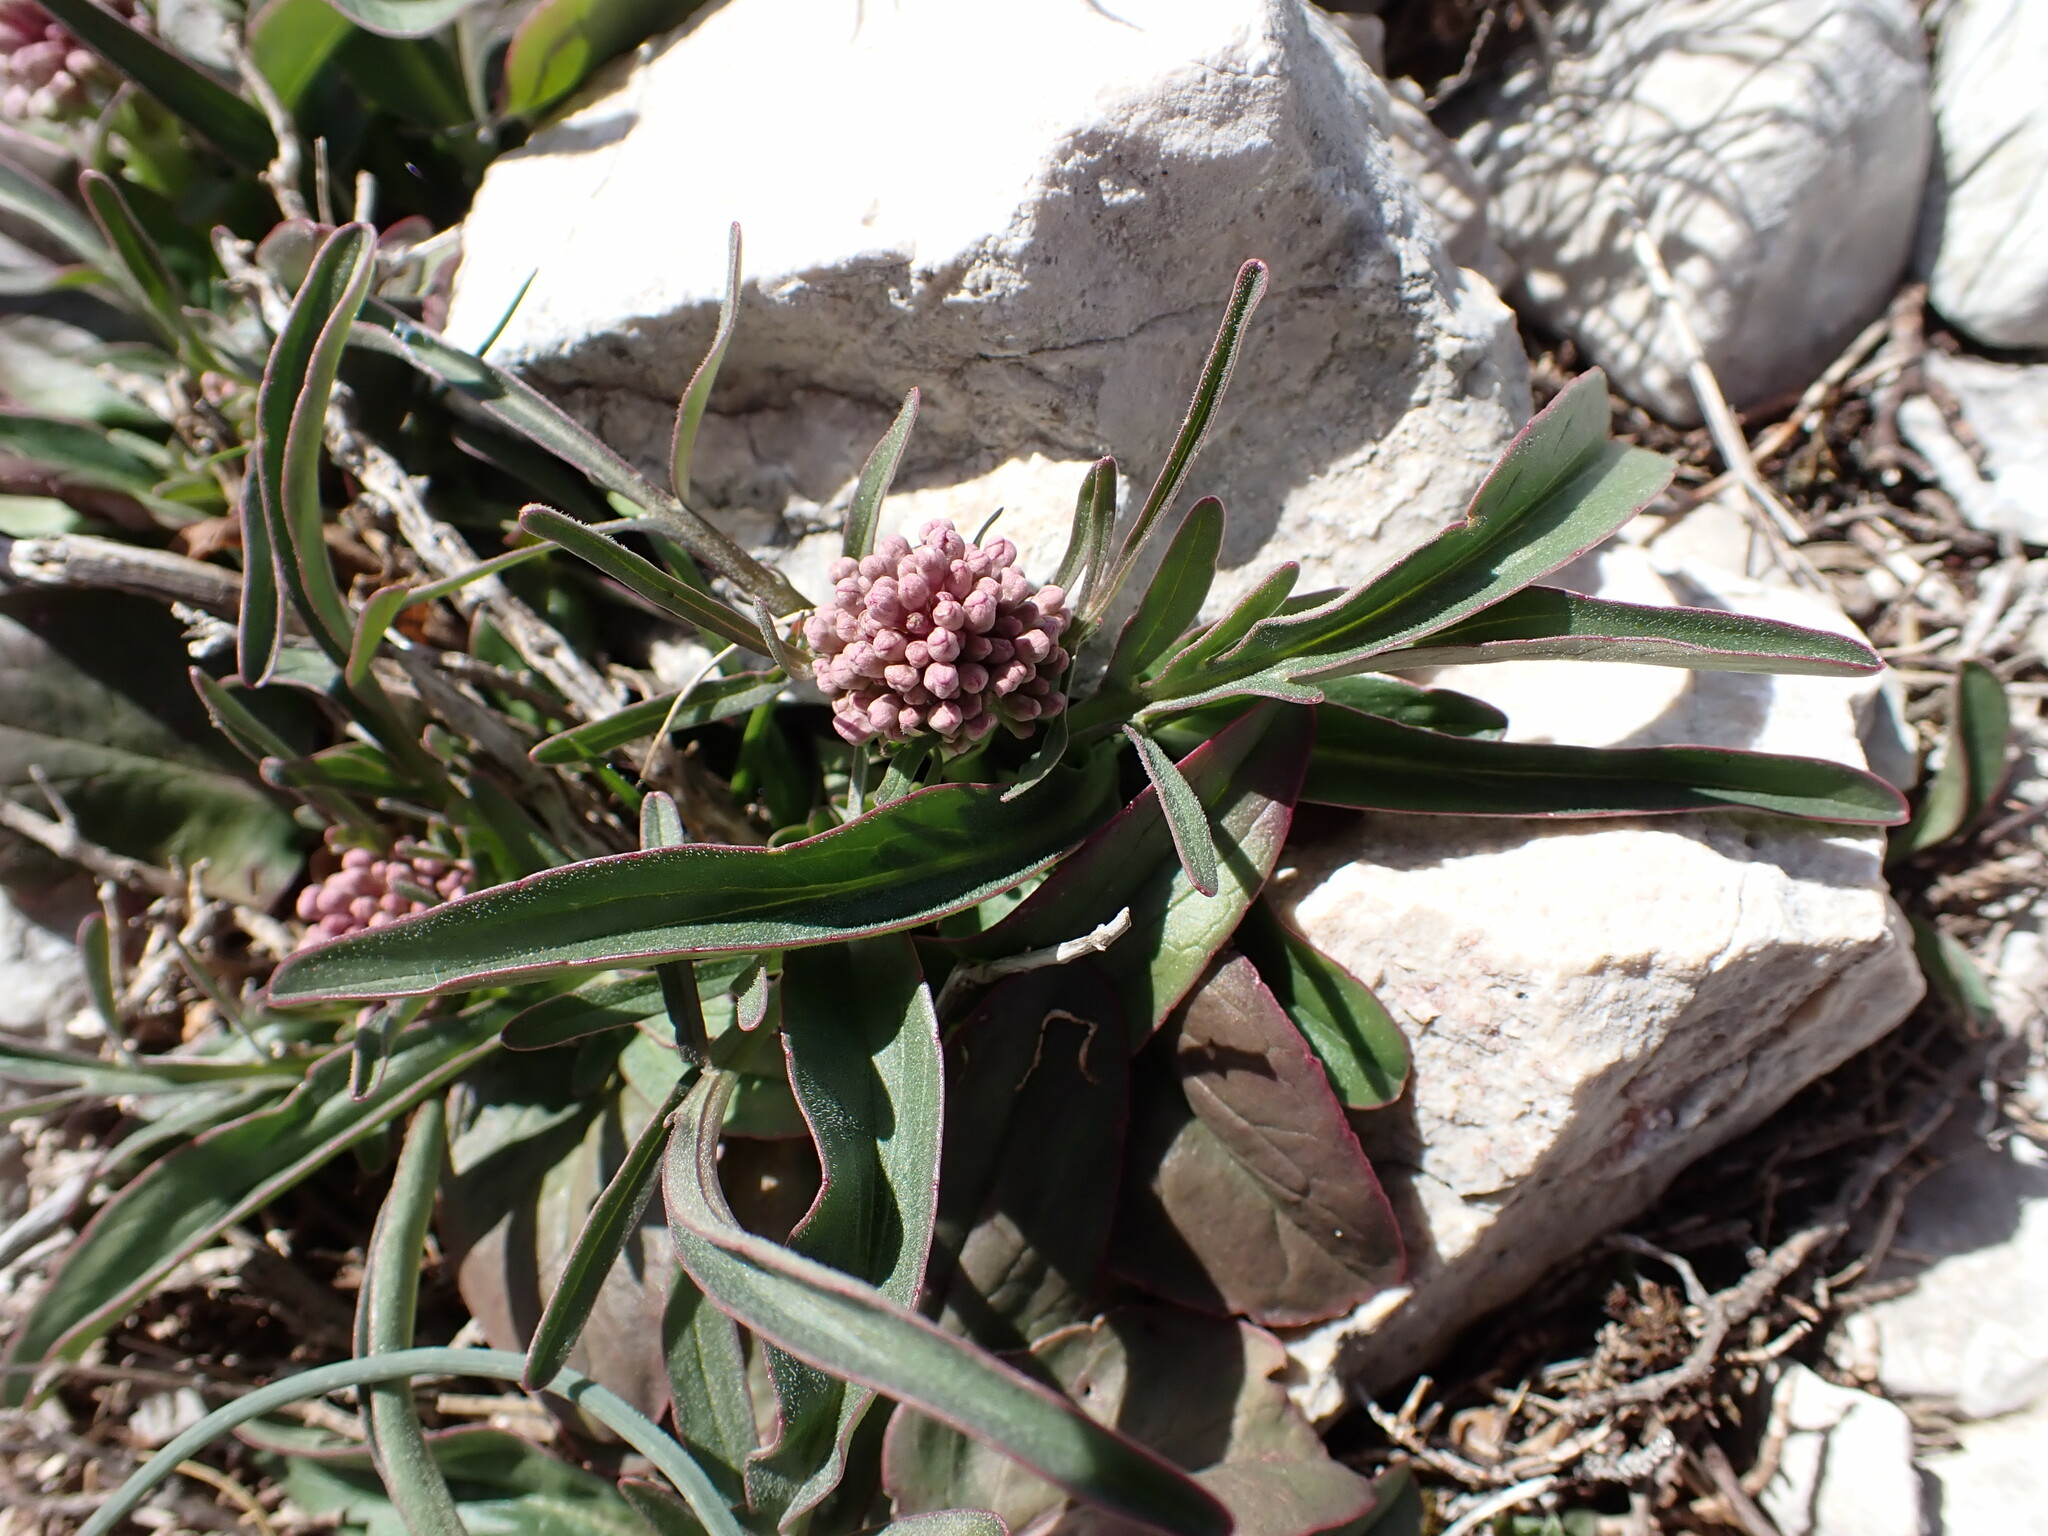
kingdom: Plantae
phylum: Tracheophyta
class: Magnoliopsida
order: Dipsacales
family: Caprifoliaceae
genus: Valeriana
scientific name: Valeriana tuberosa
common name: Tuberous valerian
